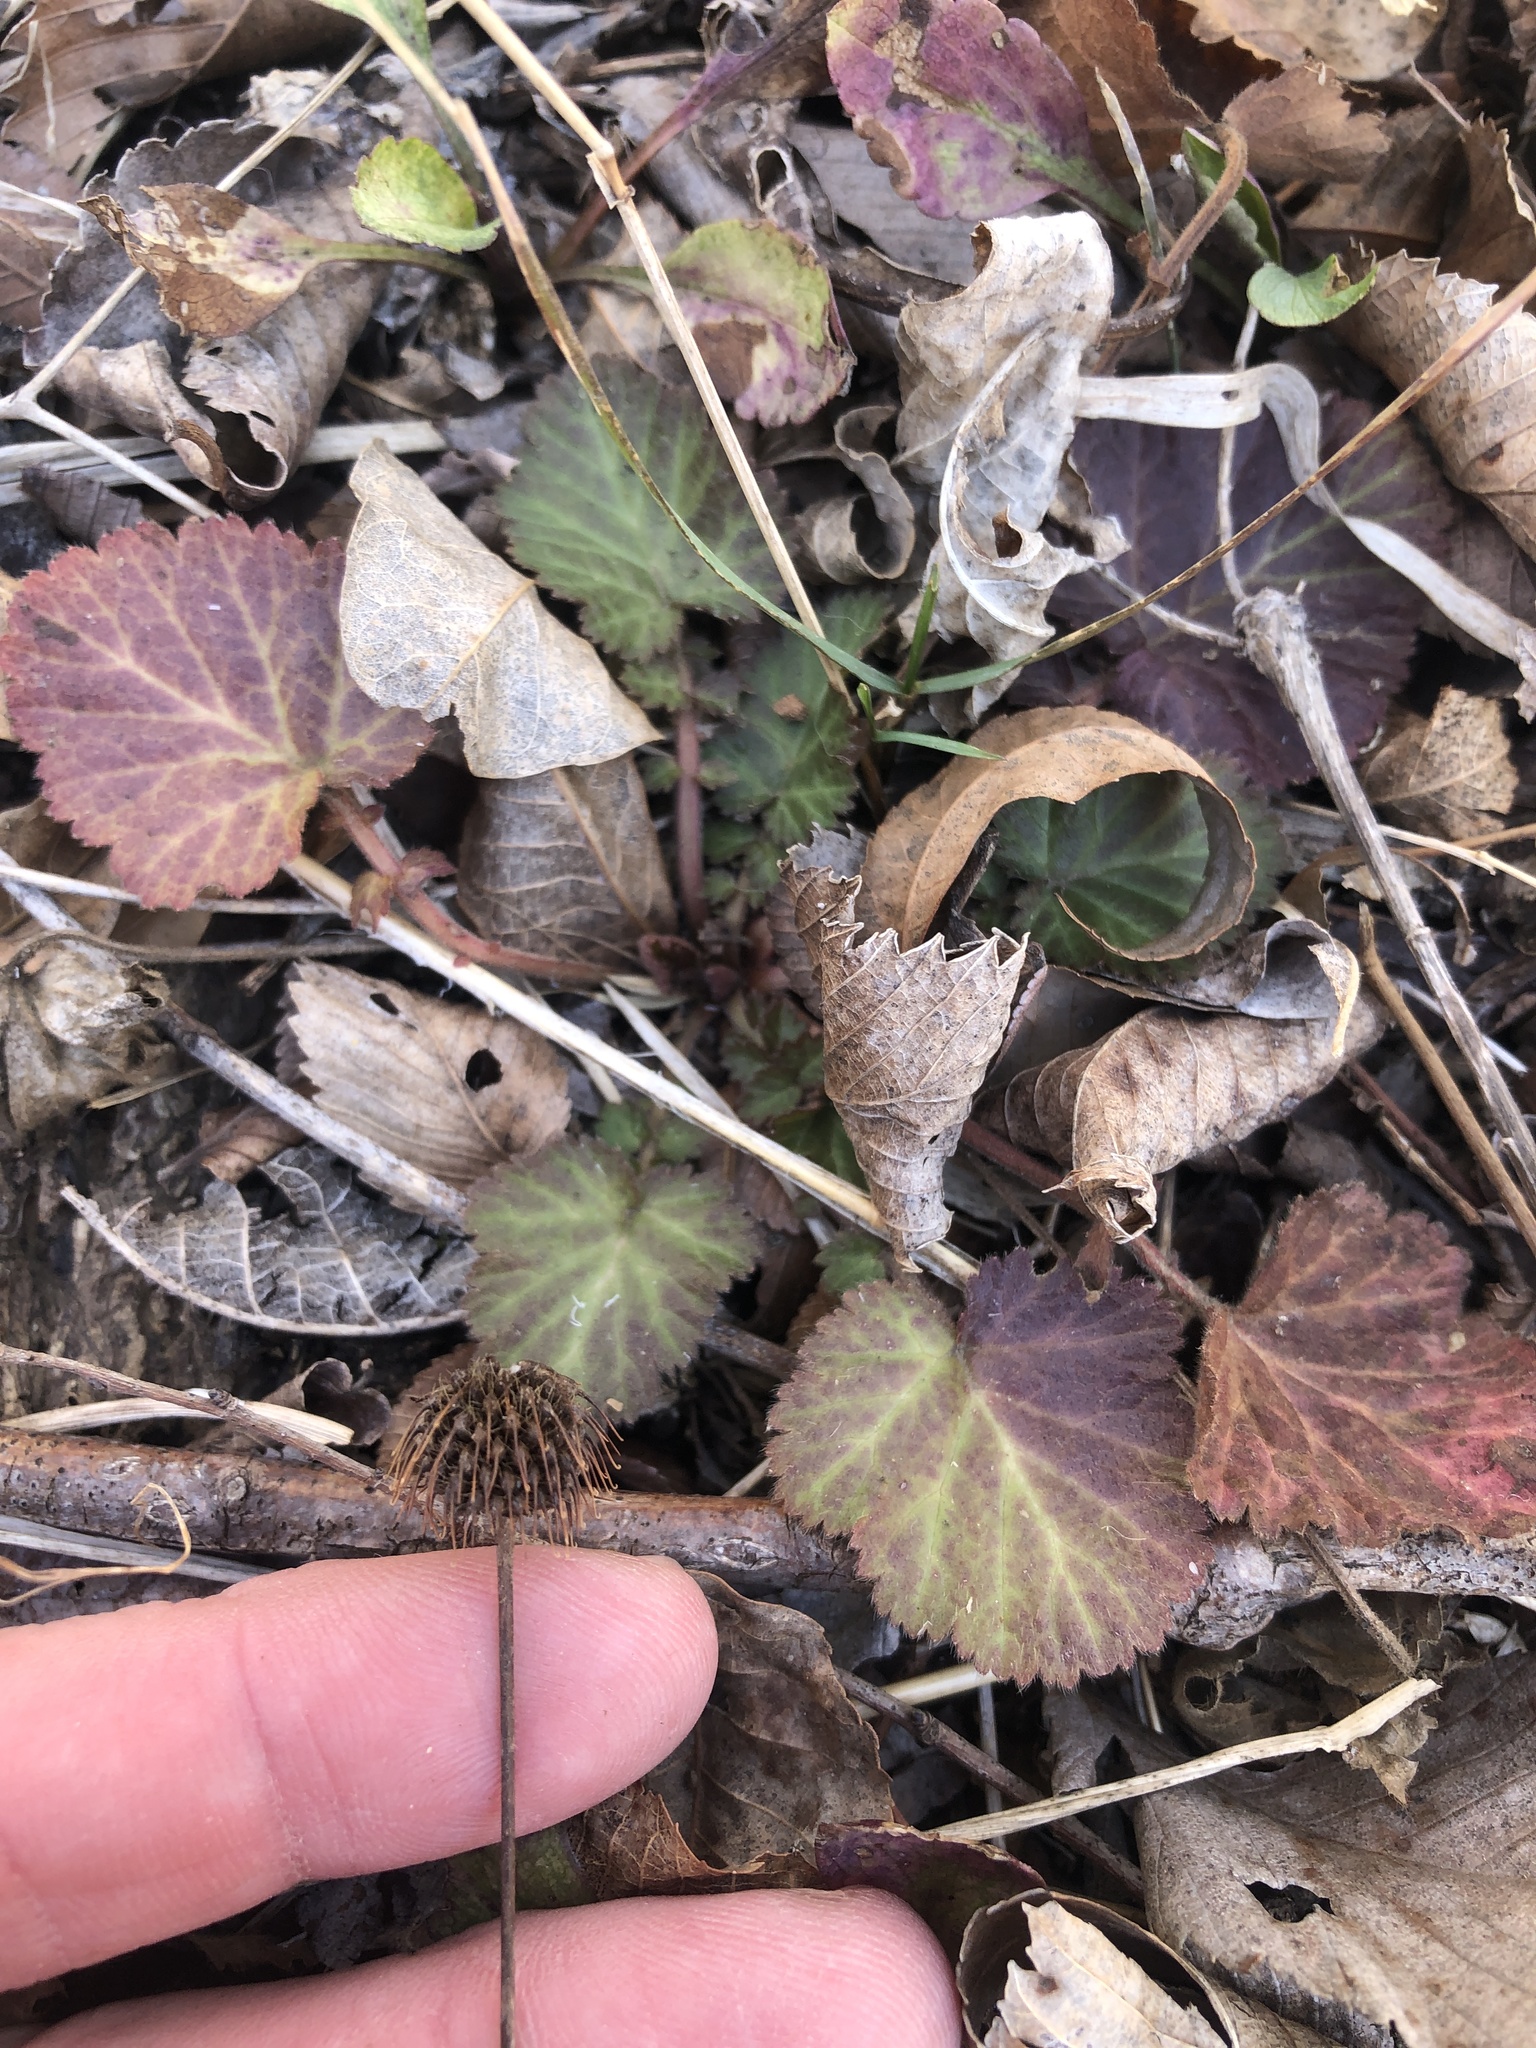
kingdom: Plantae
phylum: Tracheophyta
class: Magnoliopsida
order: Rosales
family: Rosaceae
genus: Geum
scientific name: Geum canadense
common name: White avens
